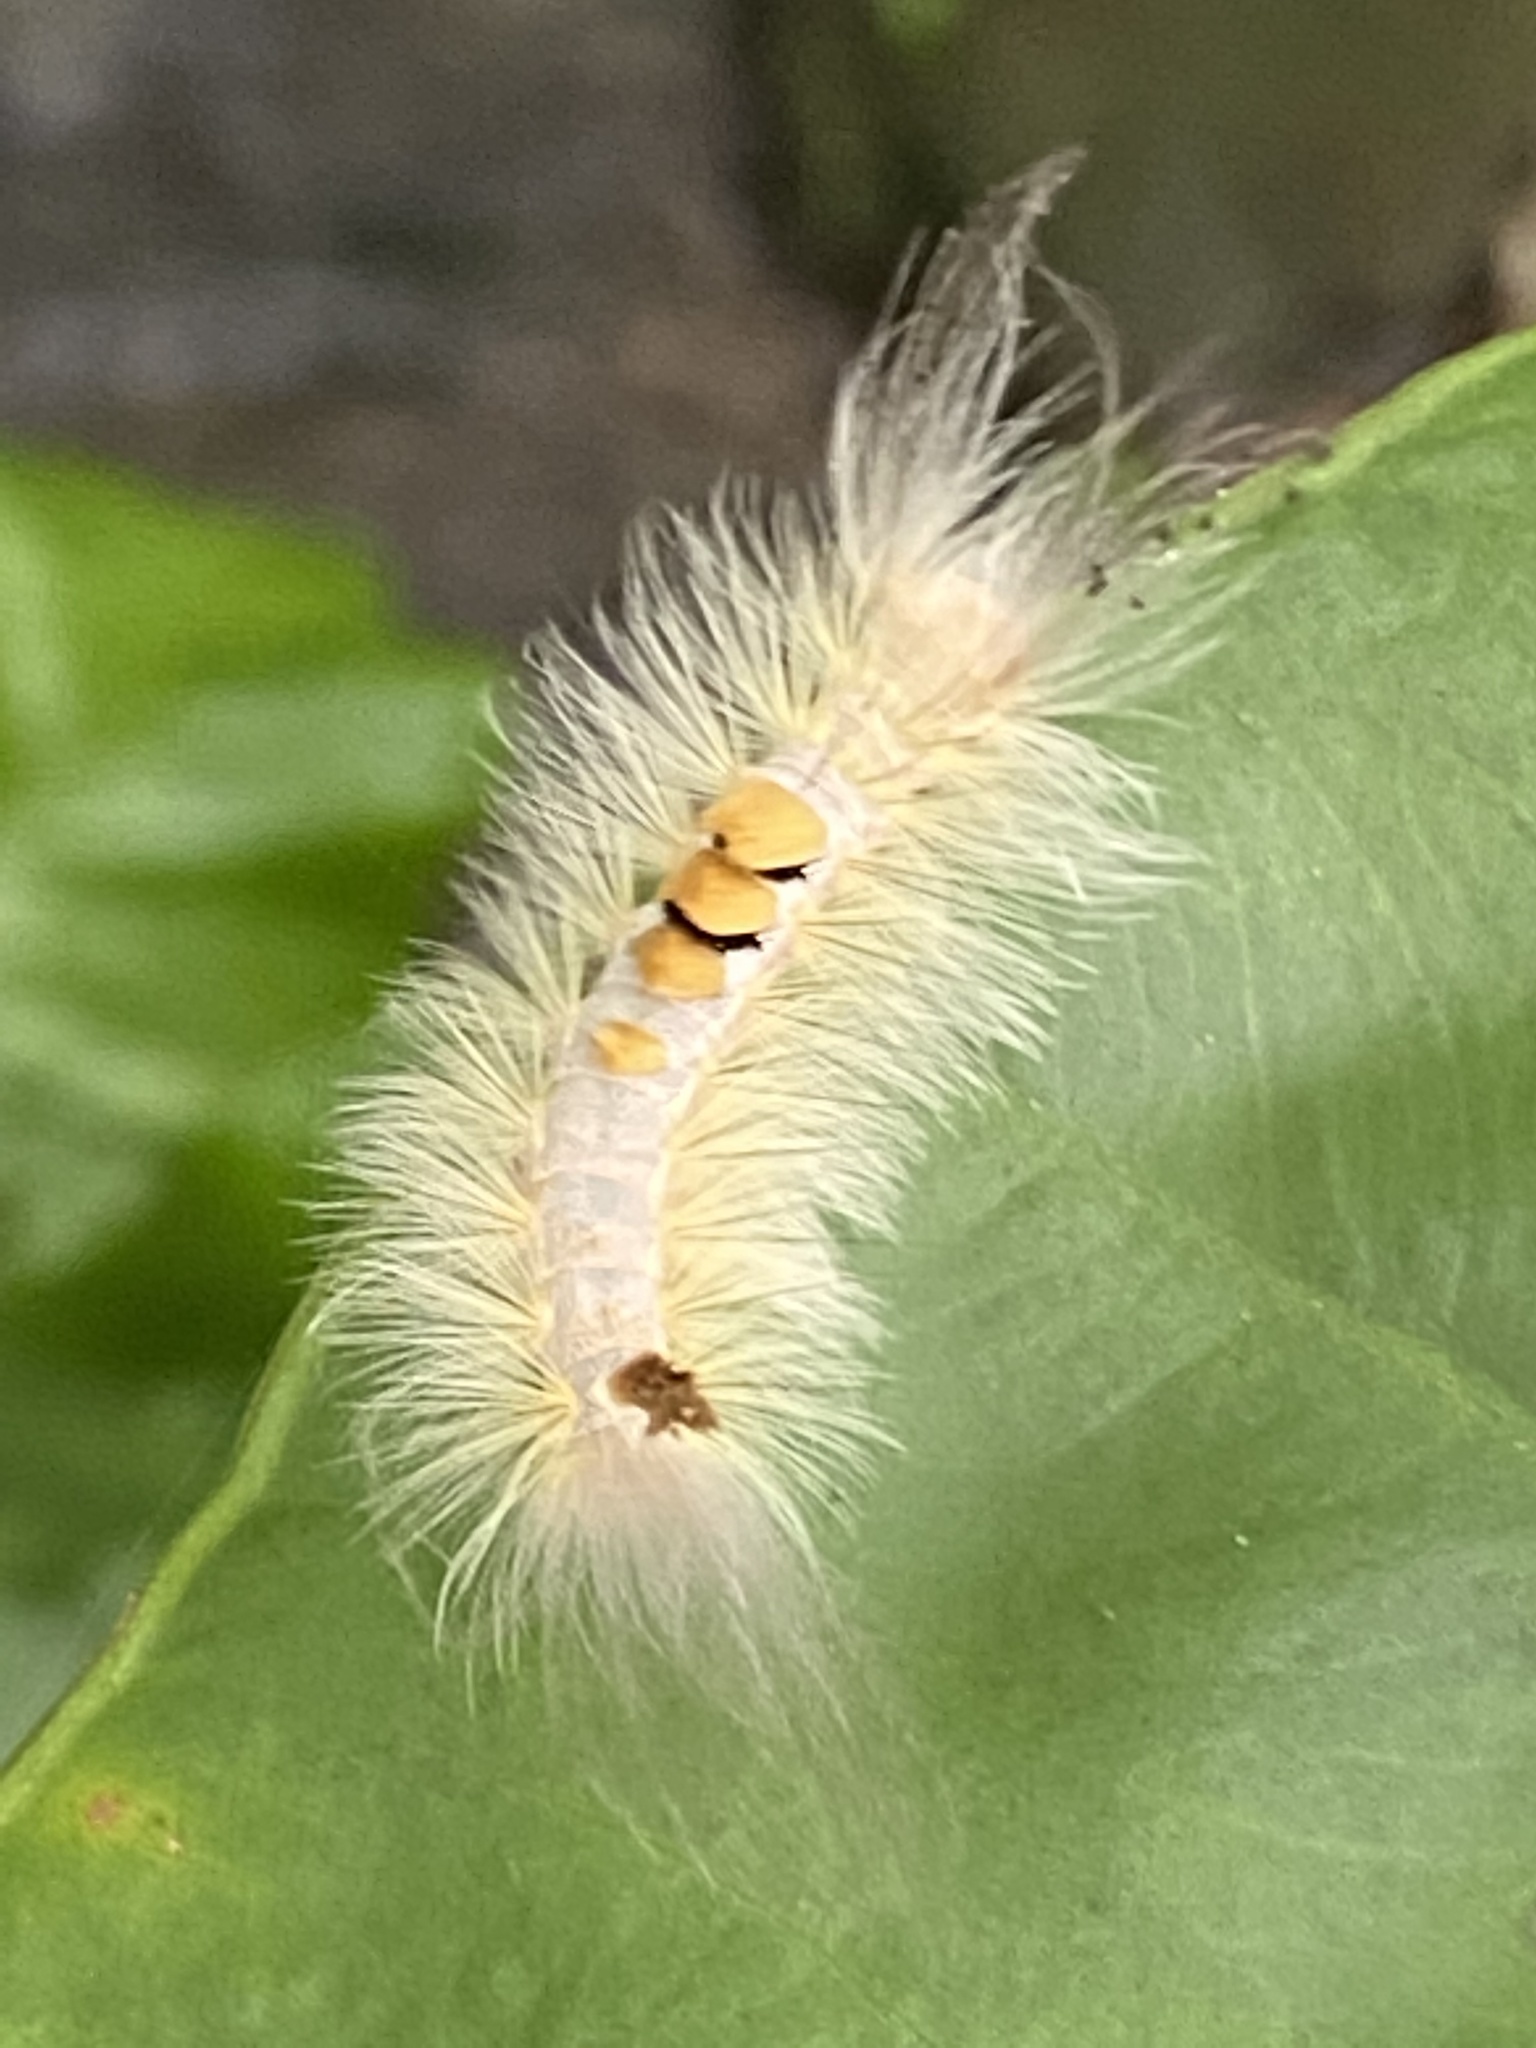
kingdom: Animalia
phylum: Arthropoda
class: Insecta
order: Lepidoptera
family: Erebidae
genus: Olene
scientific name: Olene dudgeoni
